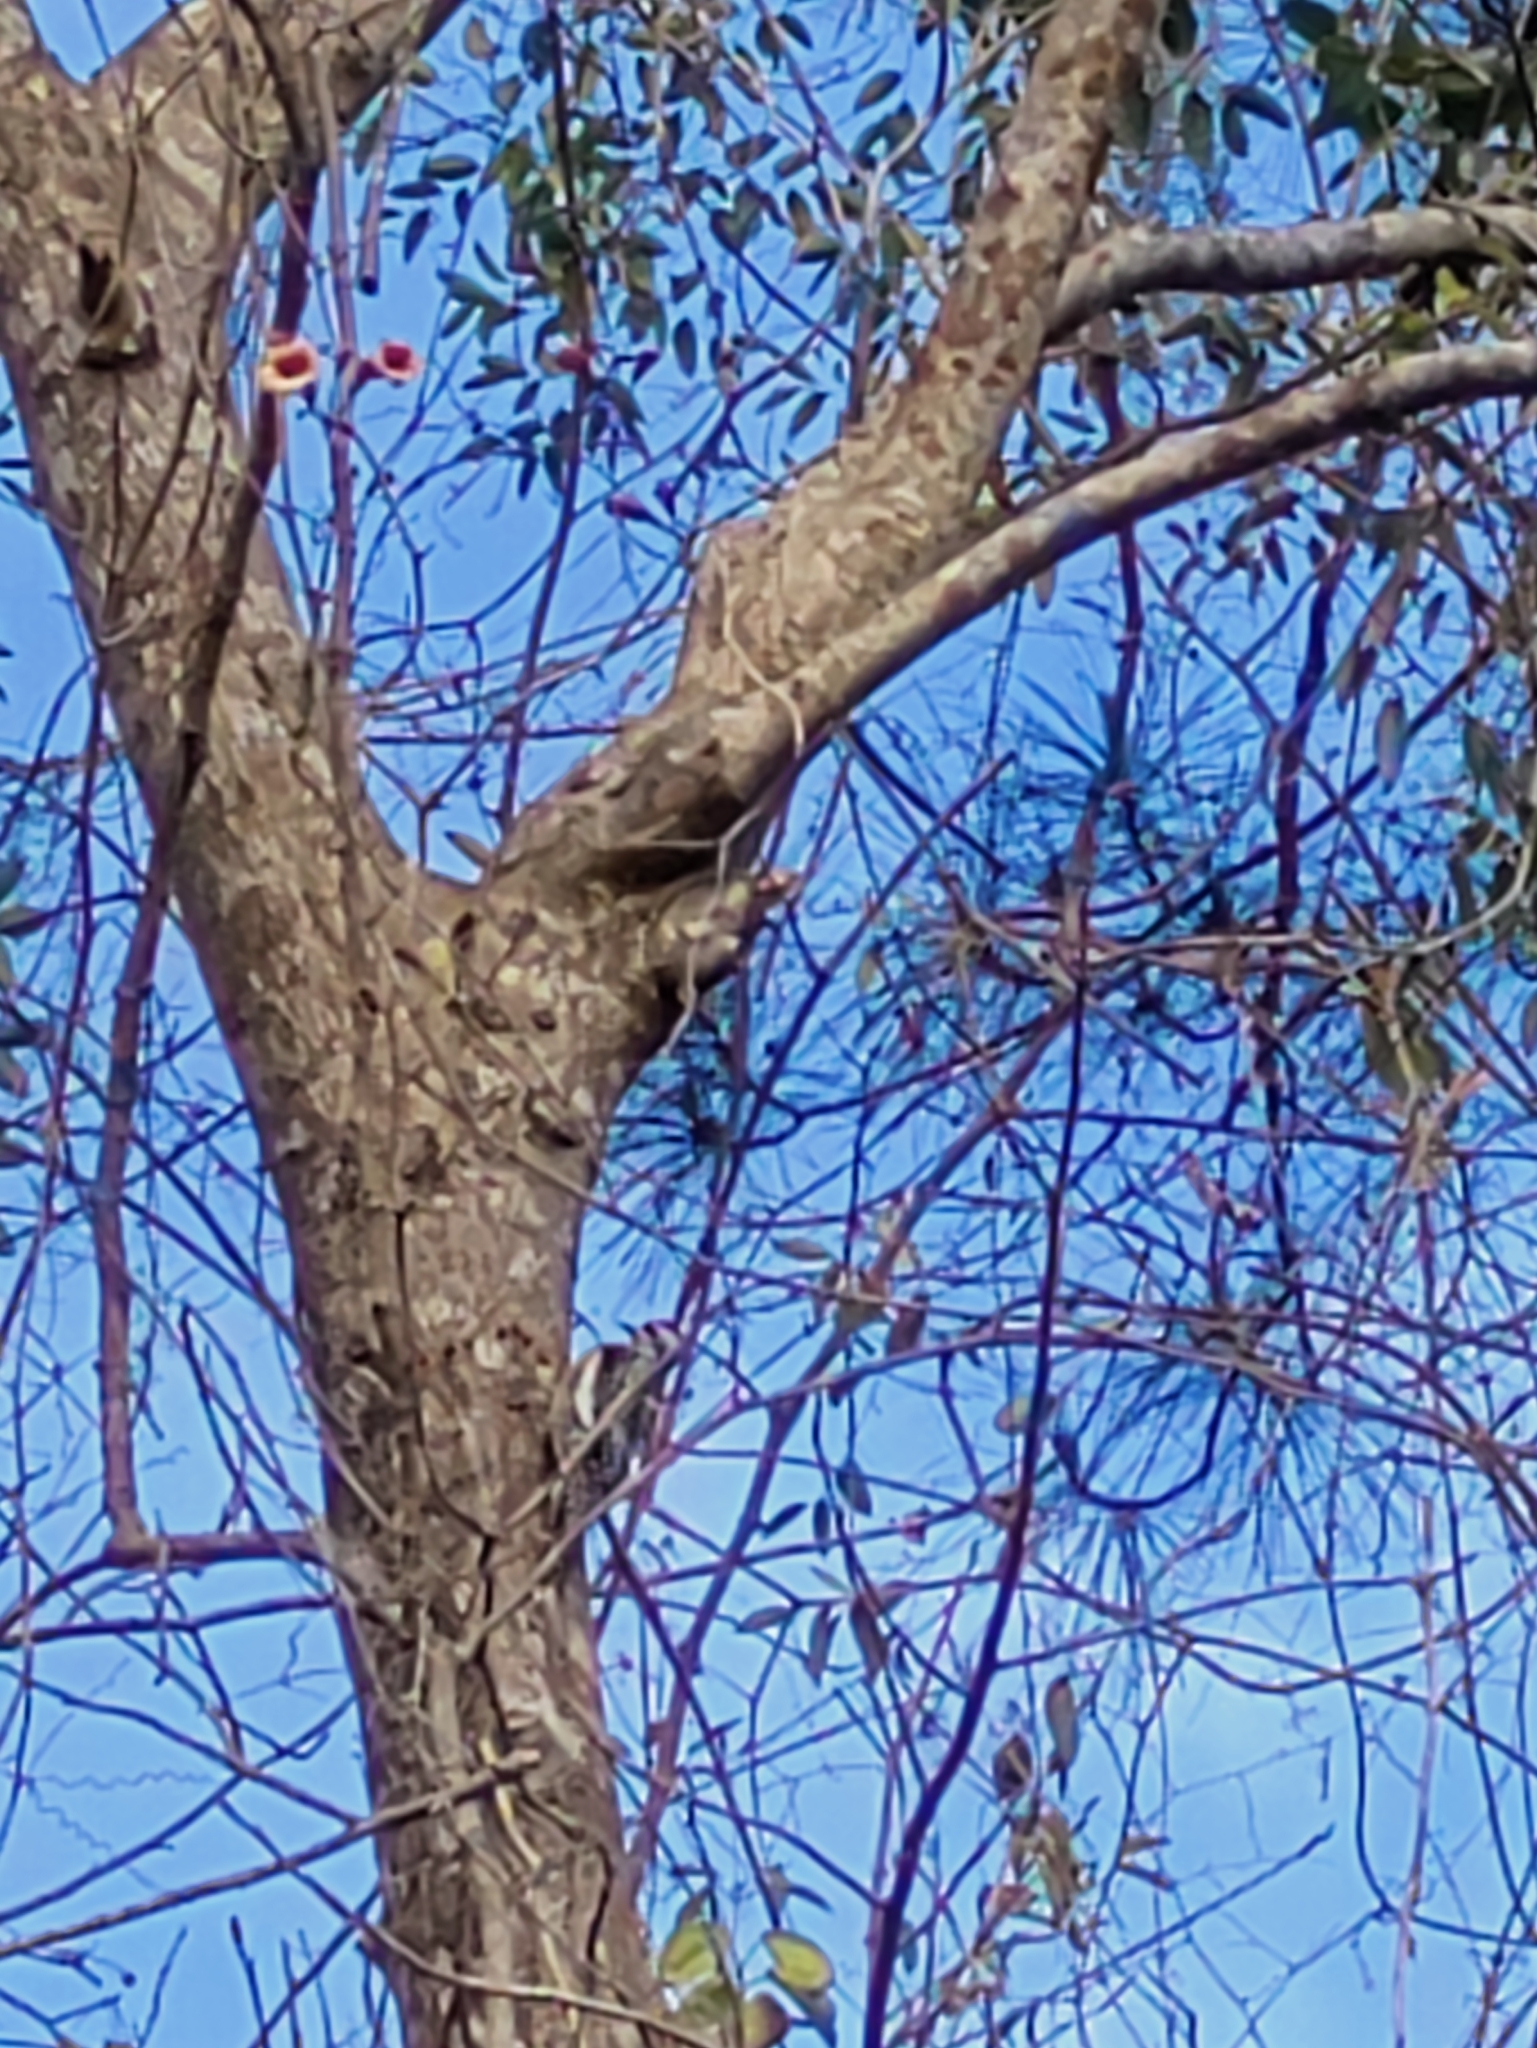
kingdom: Animalia
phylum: Chordata
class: Aves
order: Piciformes
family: Picidae
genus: Sphyrapicus
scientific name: Sphyrapicus varius
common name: Yellow-bellied sapsucker
